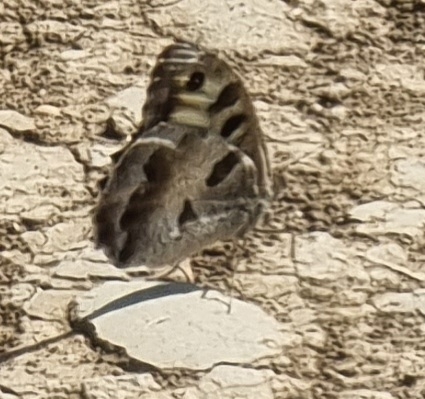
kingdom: Animalia
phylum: Arthropoda
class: Insecta
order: Lepidoptera
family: Nymphalidae
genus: Satyrus
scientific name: Satyrus briseis
